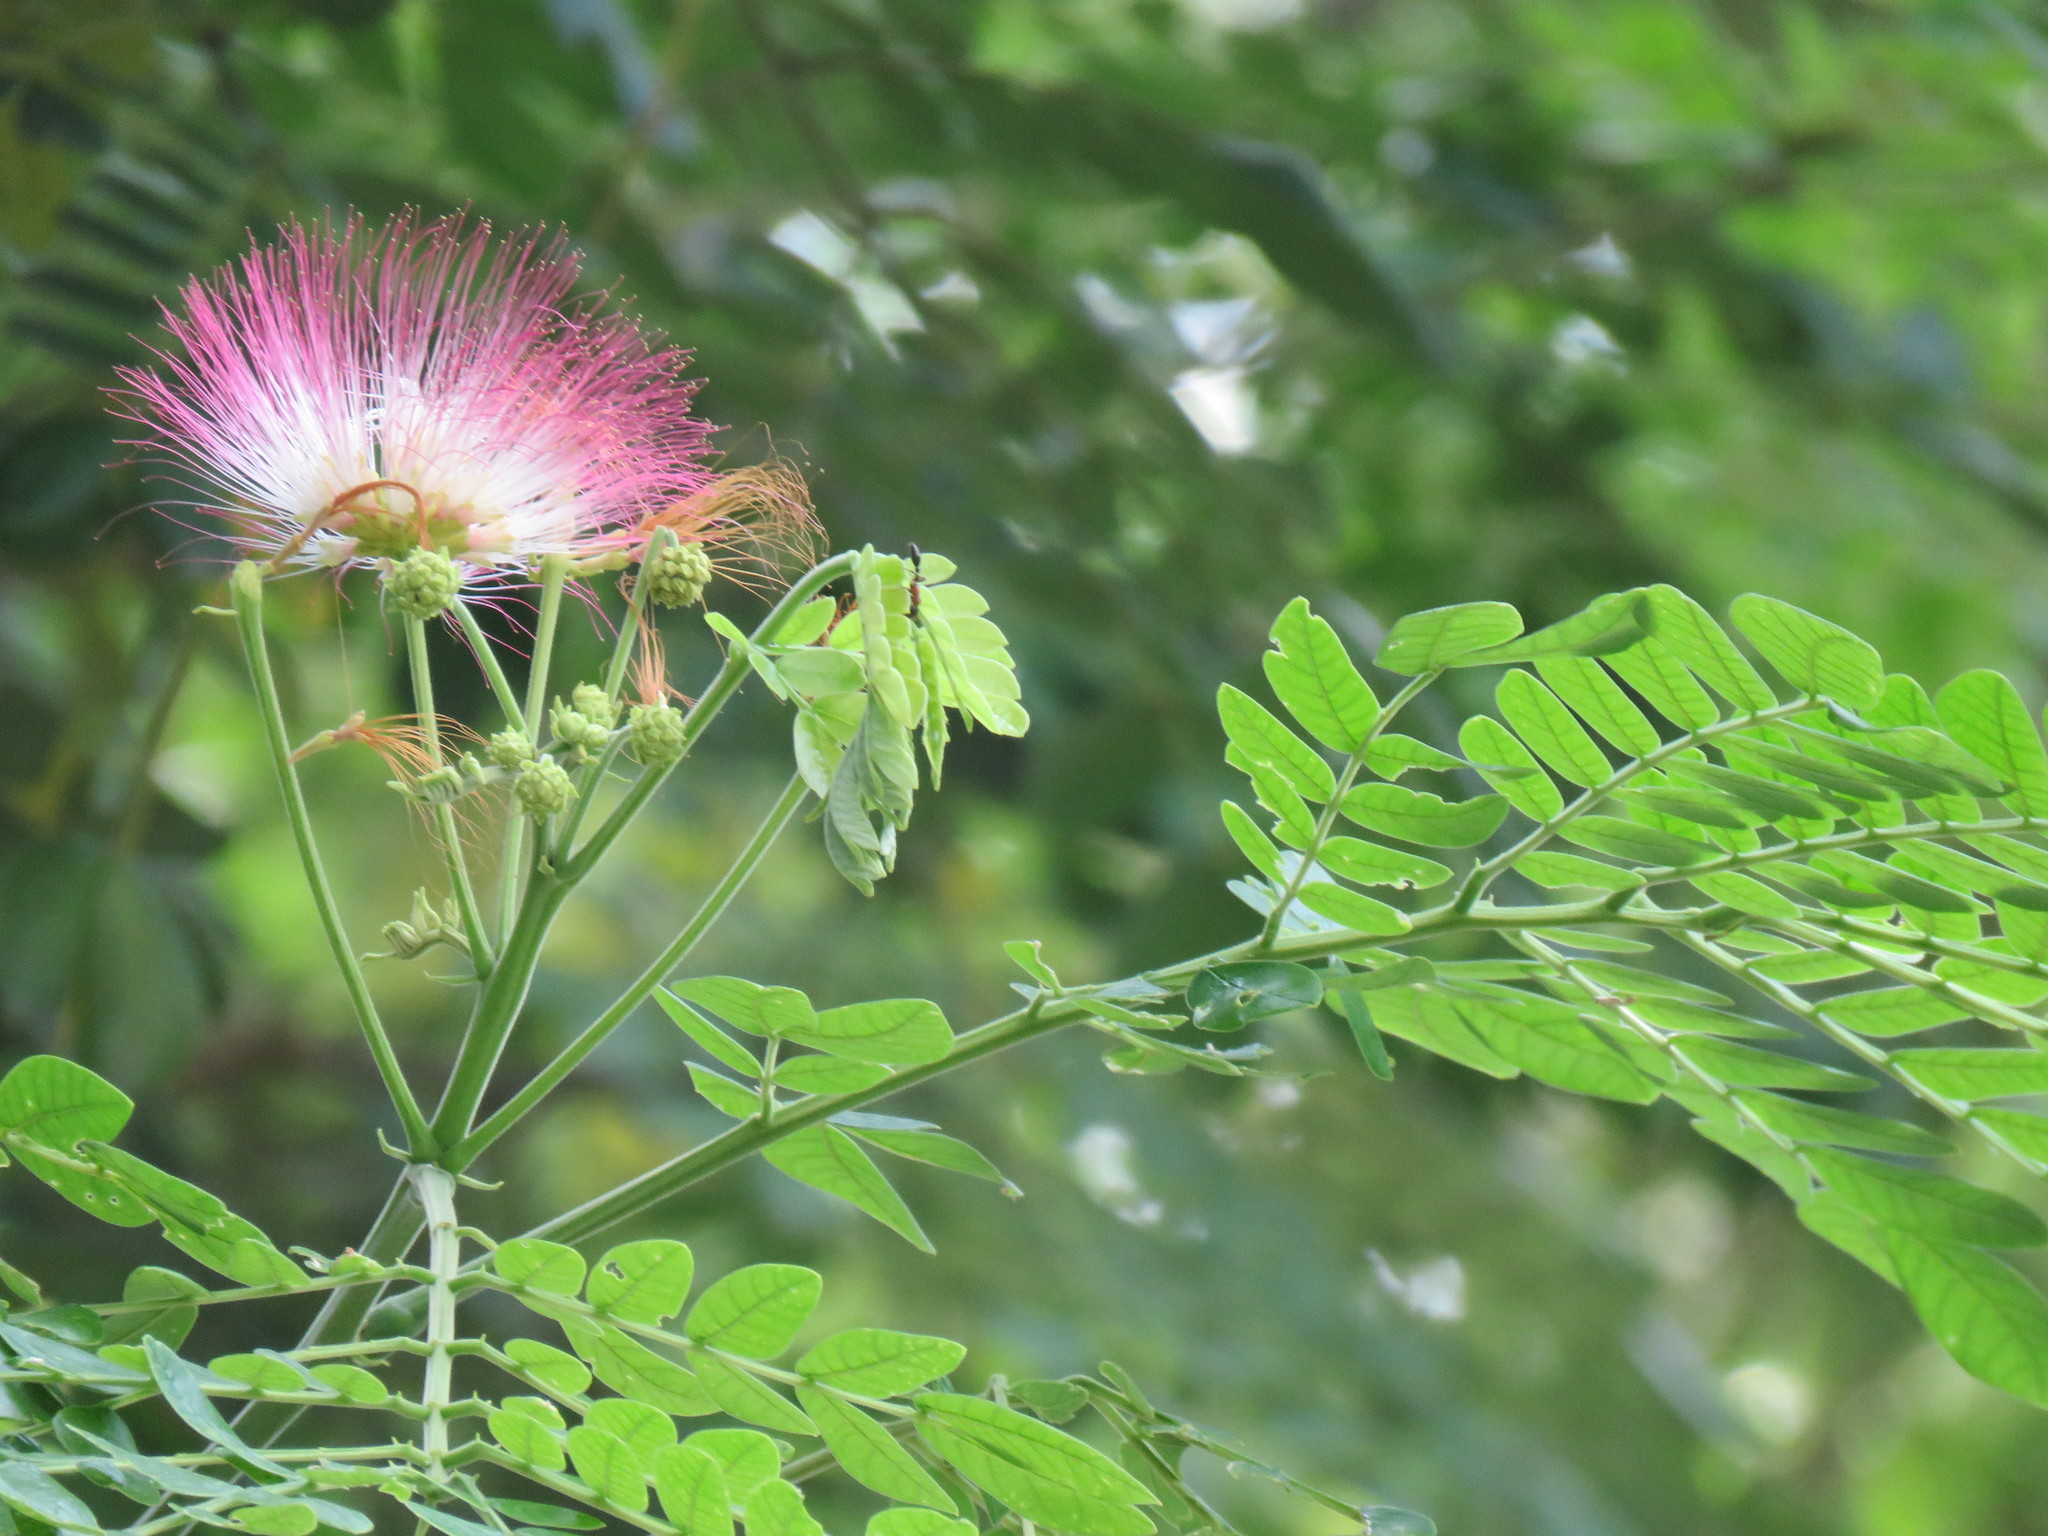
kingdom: Plantae
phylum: Tracheophyta
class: Magnoliopsida
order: Fabales
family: Fabaceae
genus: Samanea
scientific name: Samanea saman
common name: Raintree
